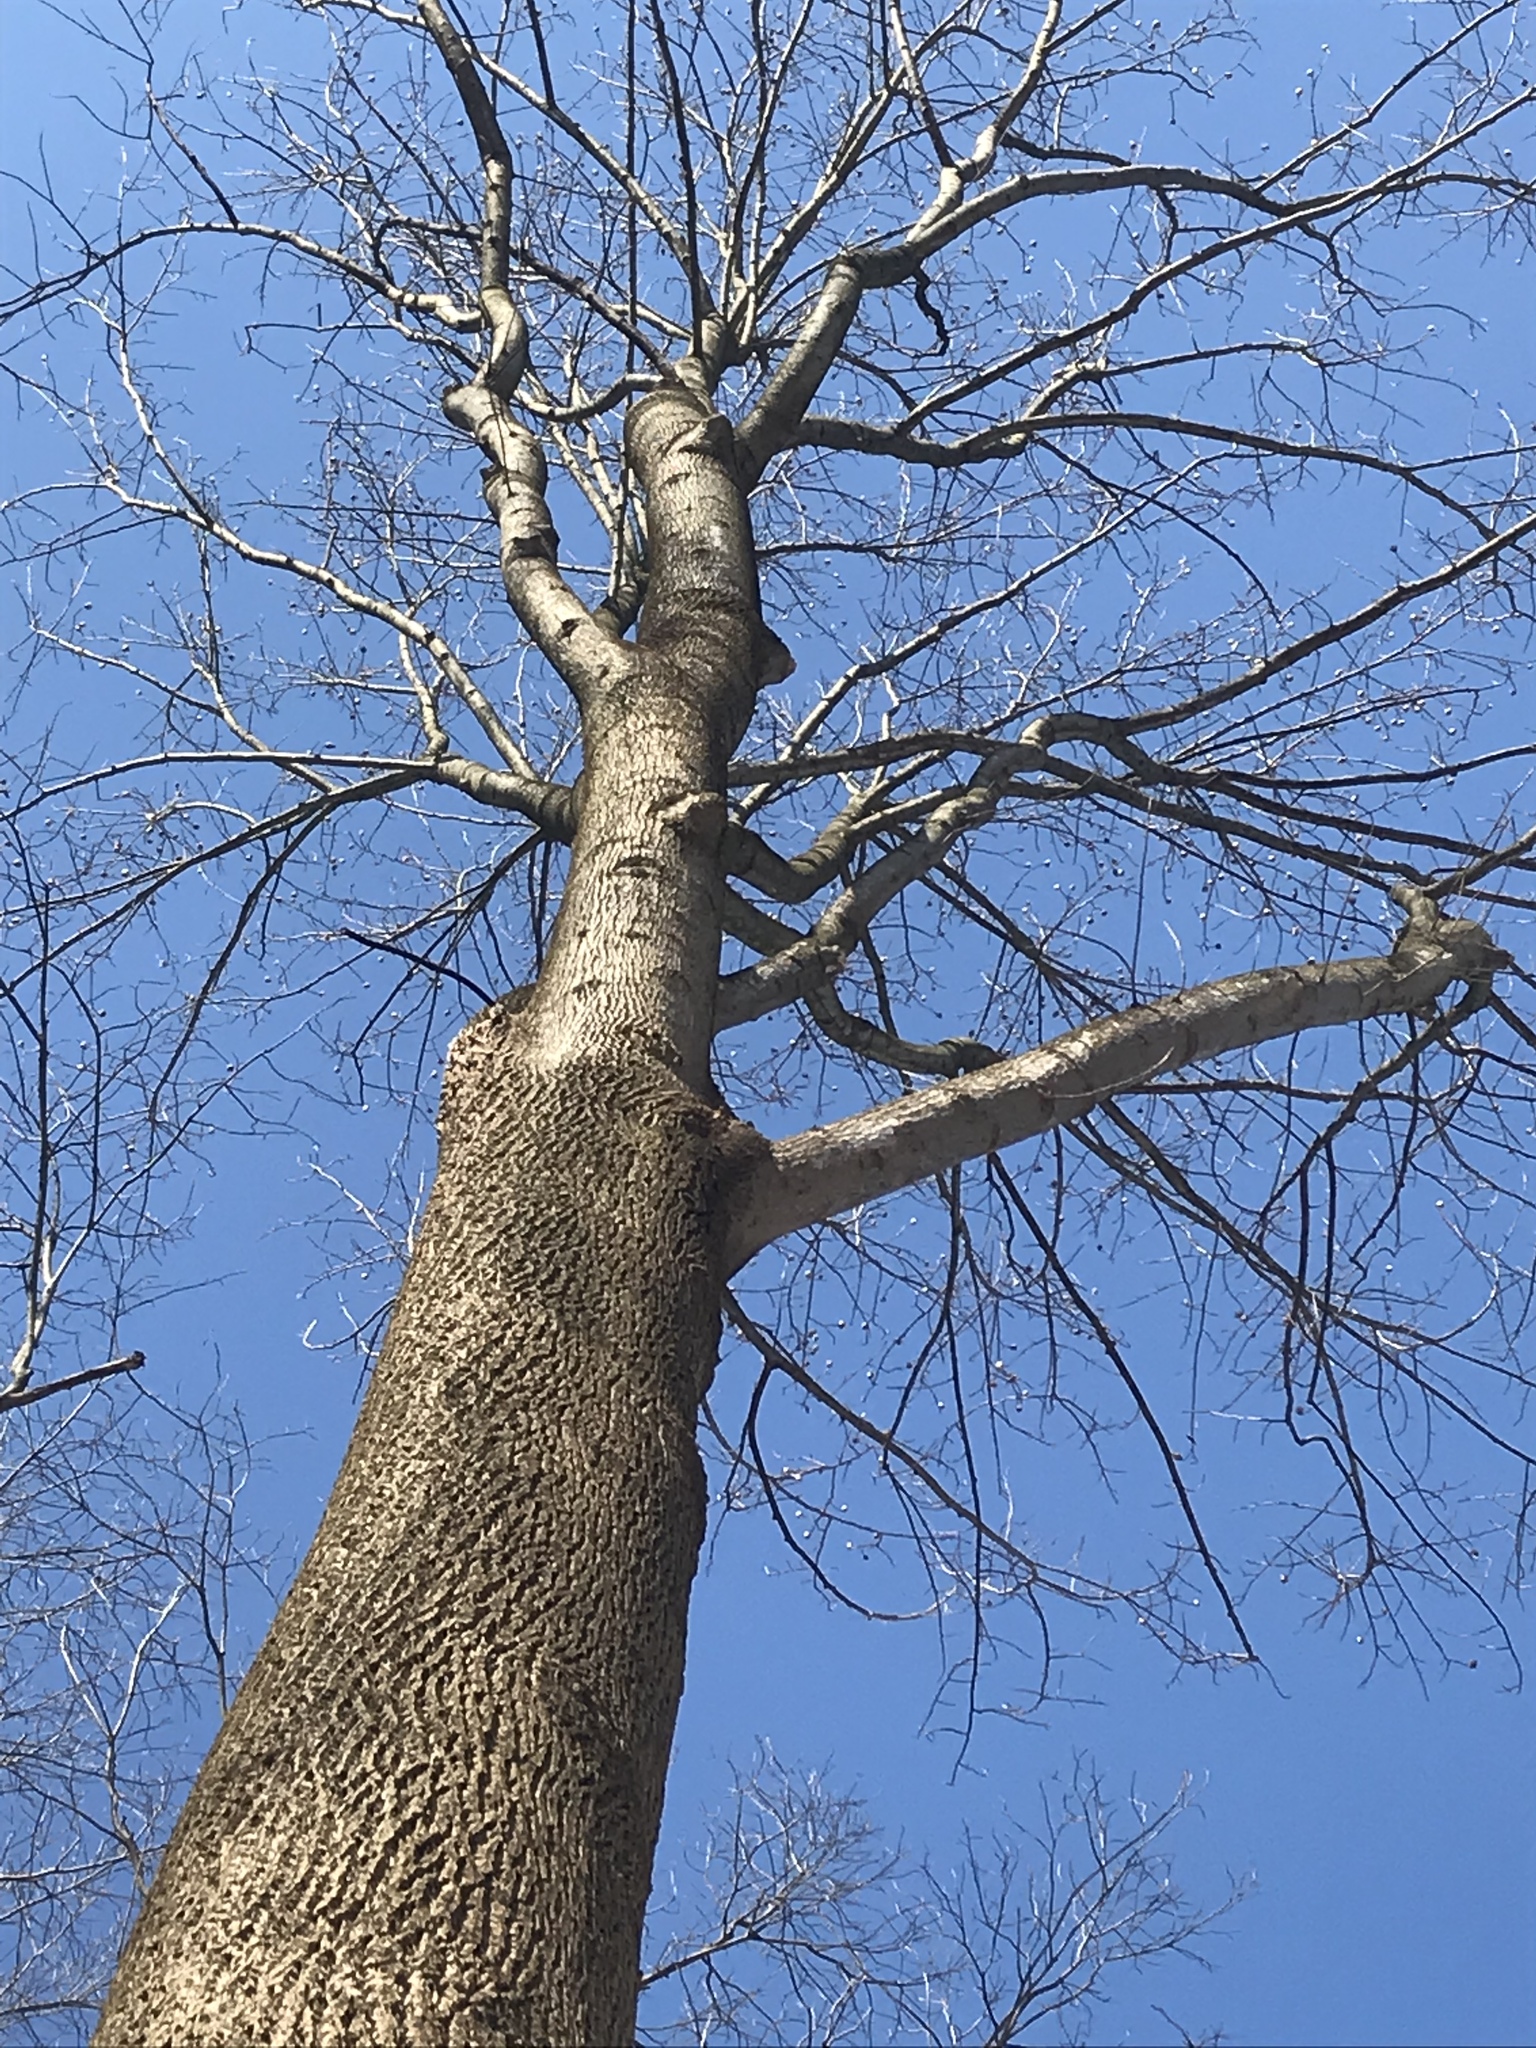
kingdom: Plantae
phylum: Tracheophyta
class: Magnoliopsida
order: Magnoliales
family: Magnoliaceae
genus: Liriodendron
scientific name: Liriodendron tulipifera
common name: Tulip tree
